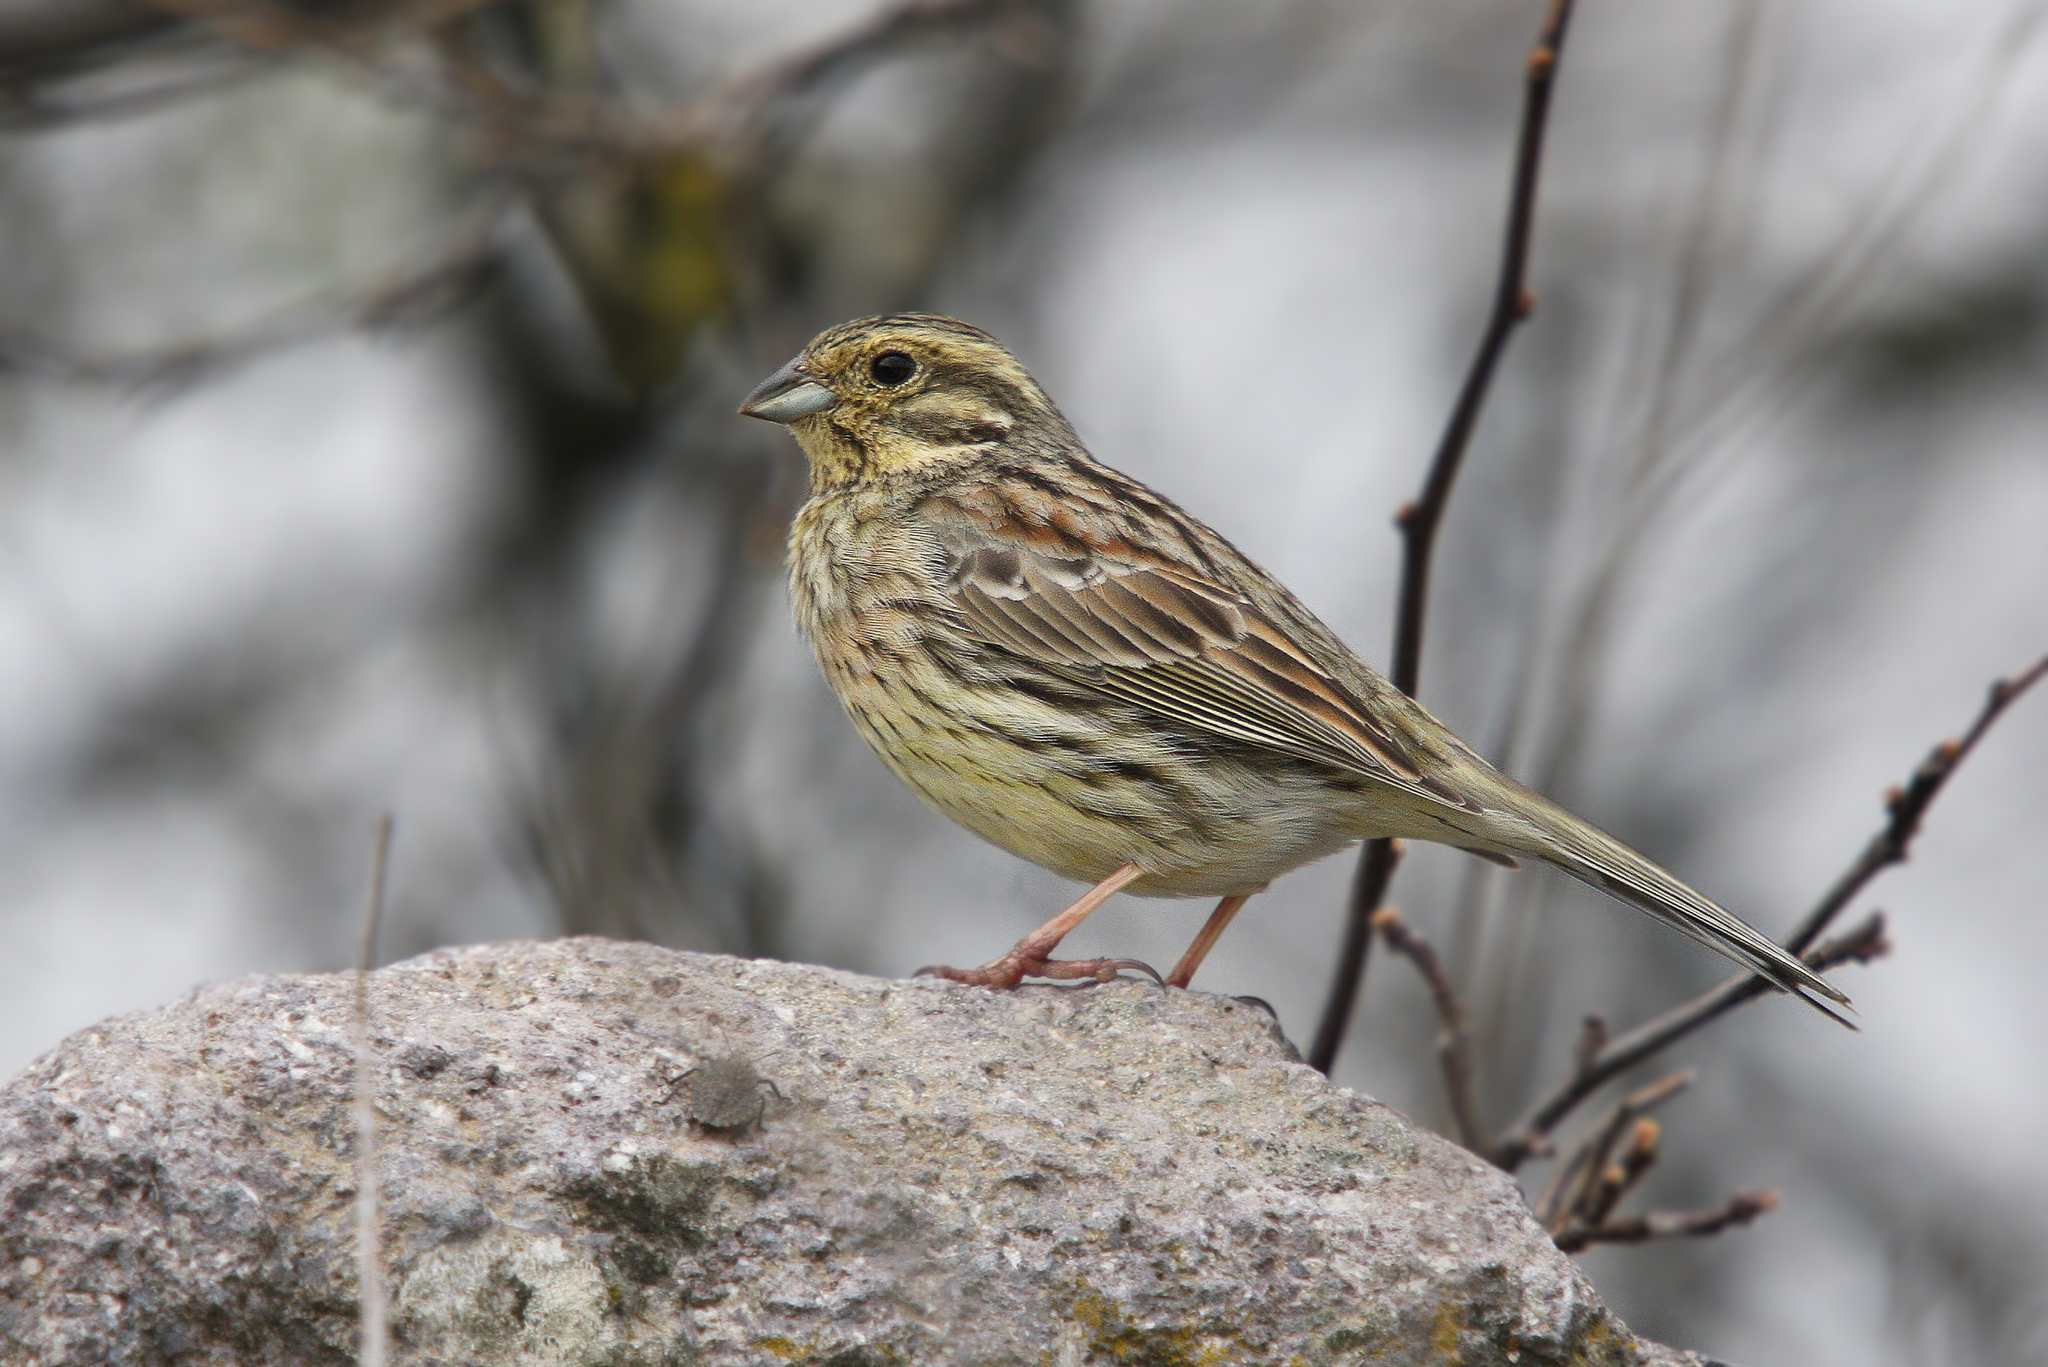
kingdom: Animalia
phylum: Chordata
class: Aves
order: Passeriformes
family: Emberizidae
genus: Emberiza
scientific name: Emberiza cirlus
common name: Cirl bunting
